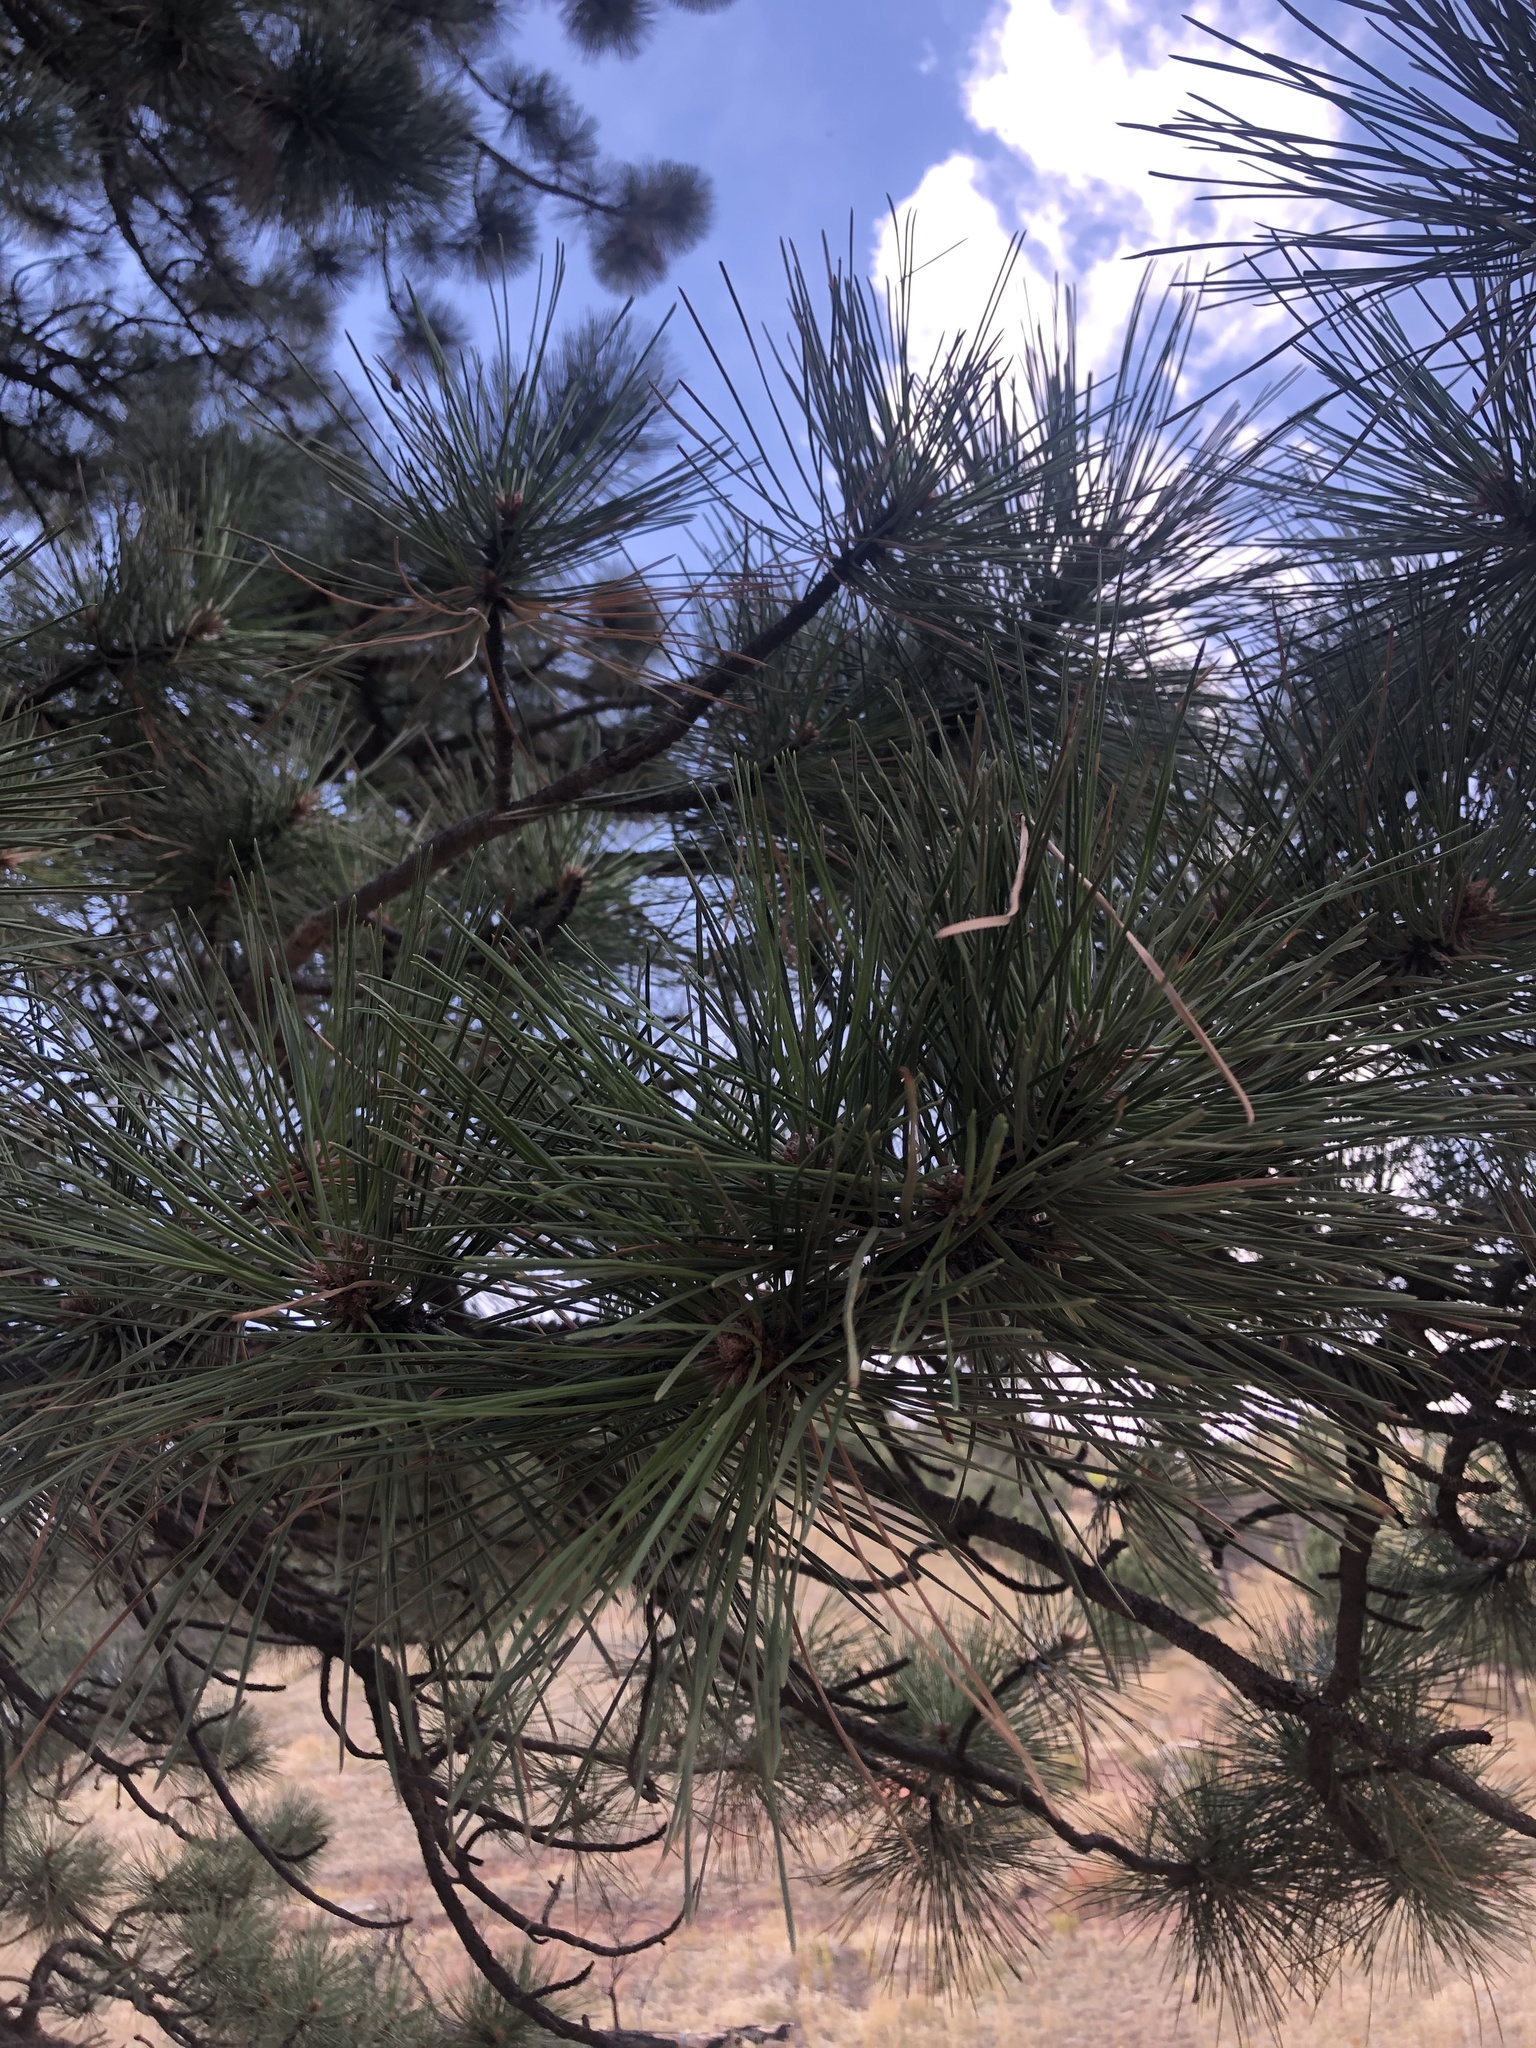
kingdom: Plantae
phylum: Tracheophyta
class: Pinopsida
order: Pinales
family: Pinaceae
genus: Pinus
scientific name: Pinus ponderosa
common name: Western yellow-pine
